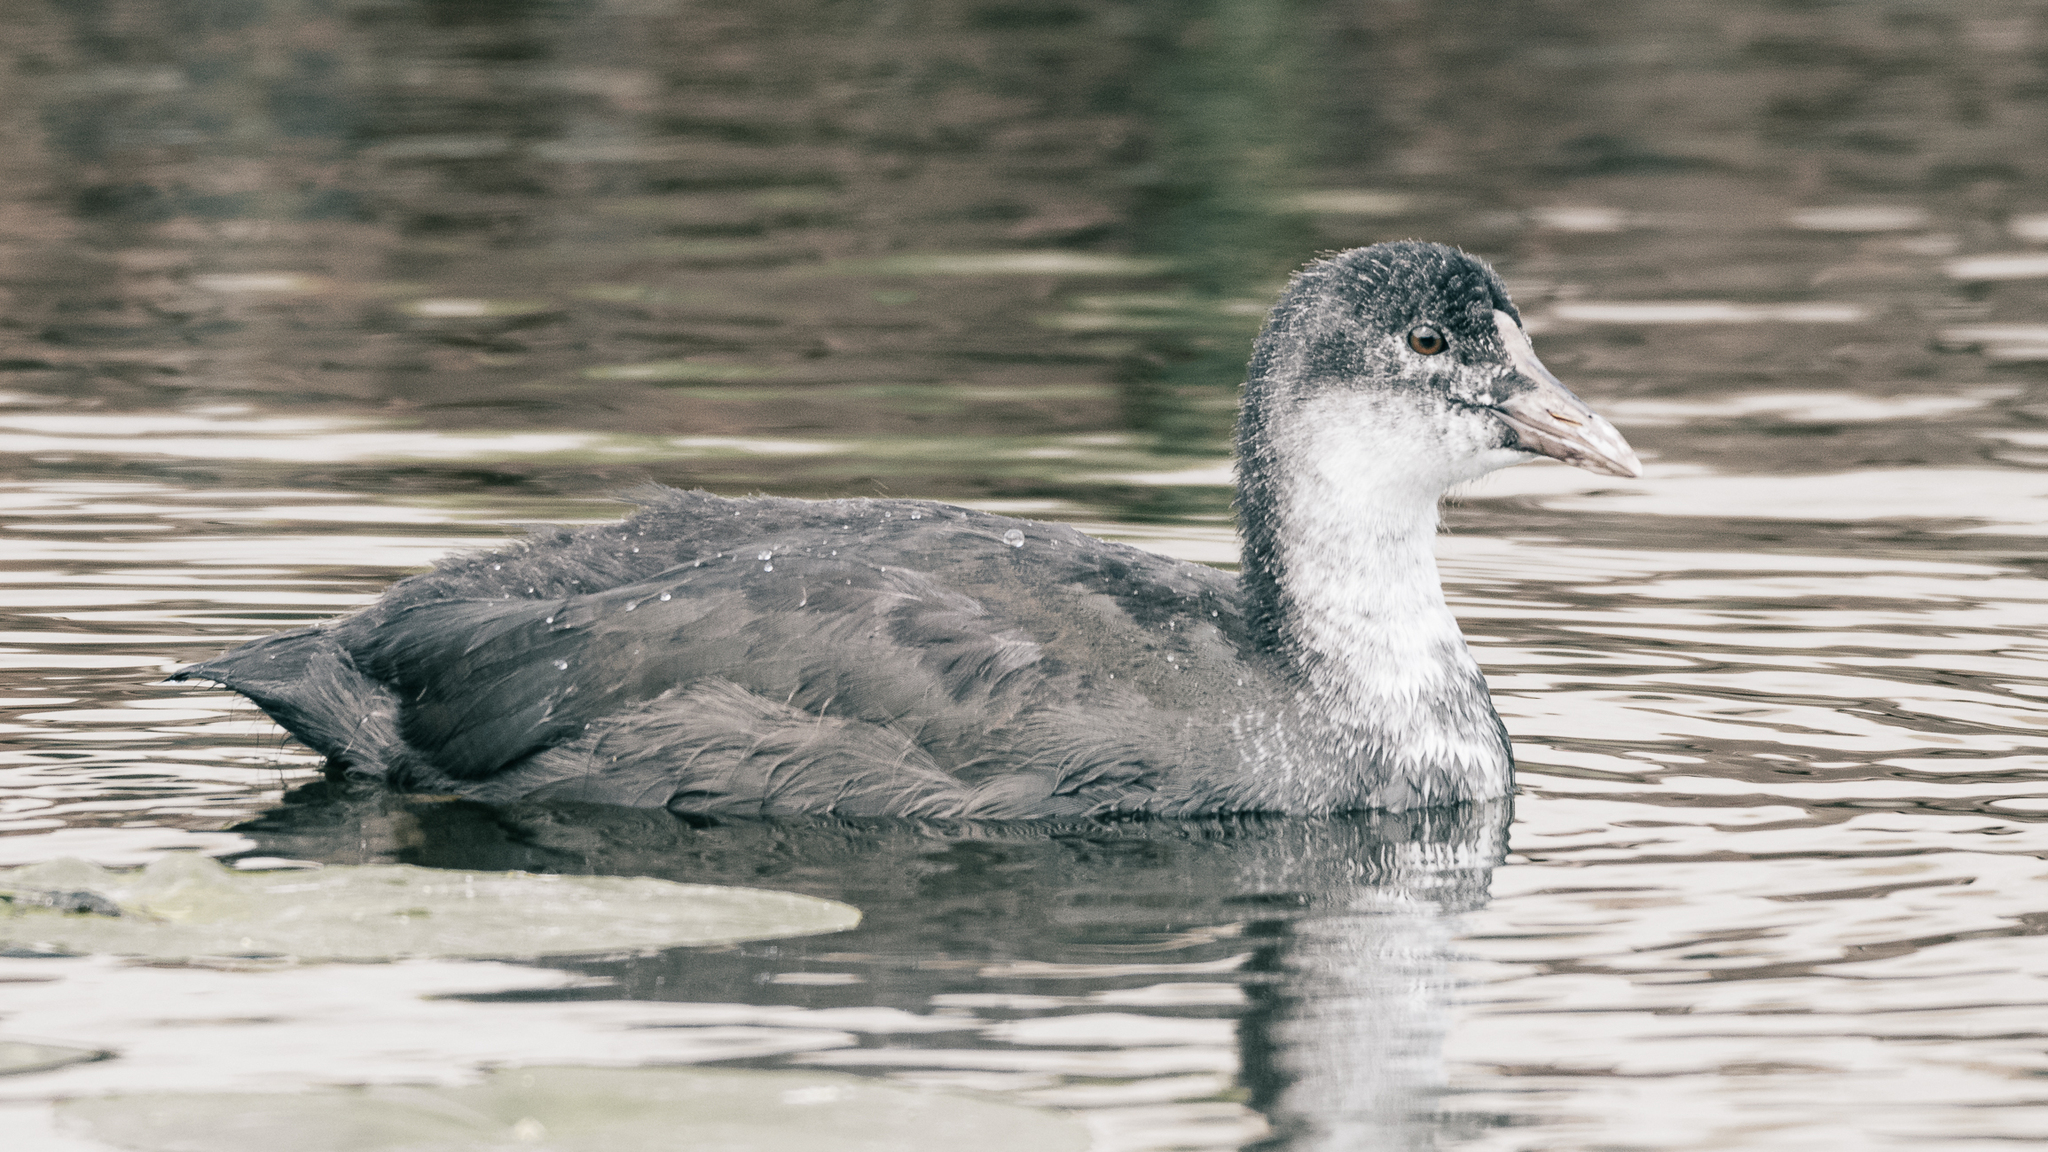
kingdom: Animalia
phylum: Chordata
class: Aves
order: Gruiformes
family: Rallidae
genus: Fulica
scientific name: Fulica atra
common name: Eurasian coot
